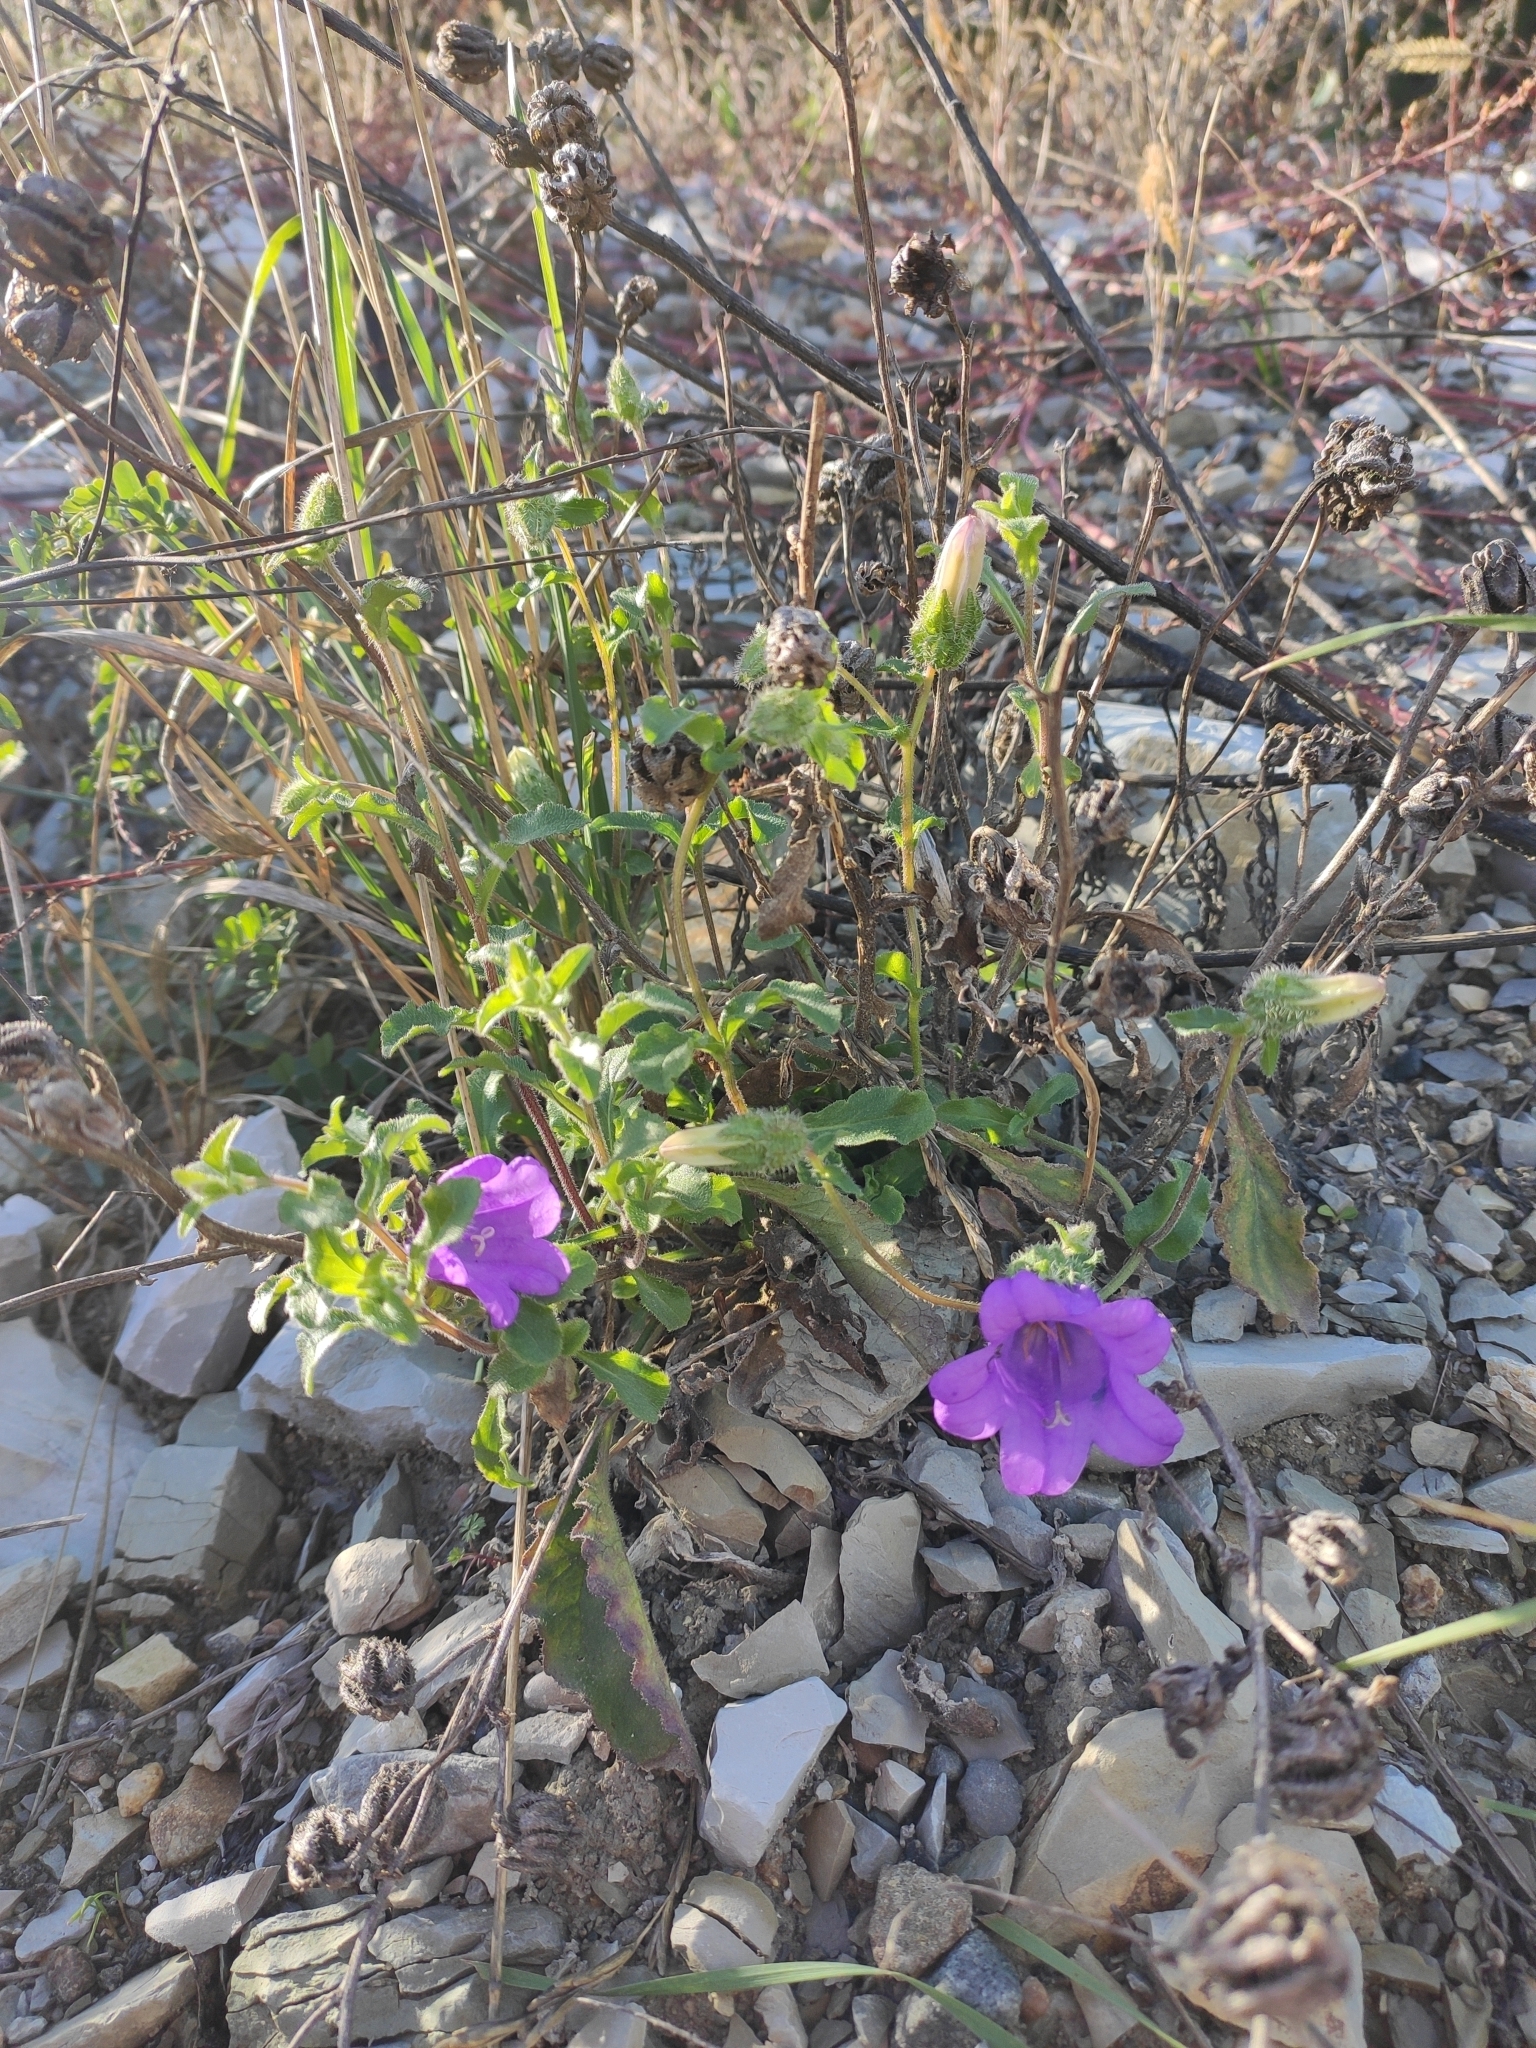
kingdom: Plantae
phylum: Tracheophyta
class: Magnoliopsida
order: Asterales
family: Campanulaceae
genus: Campanula
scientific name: Campanula komarovii
